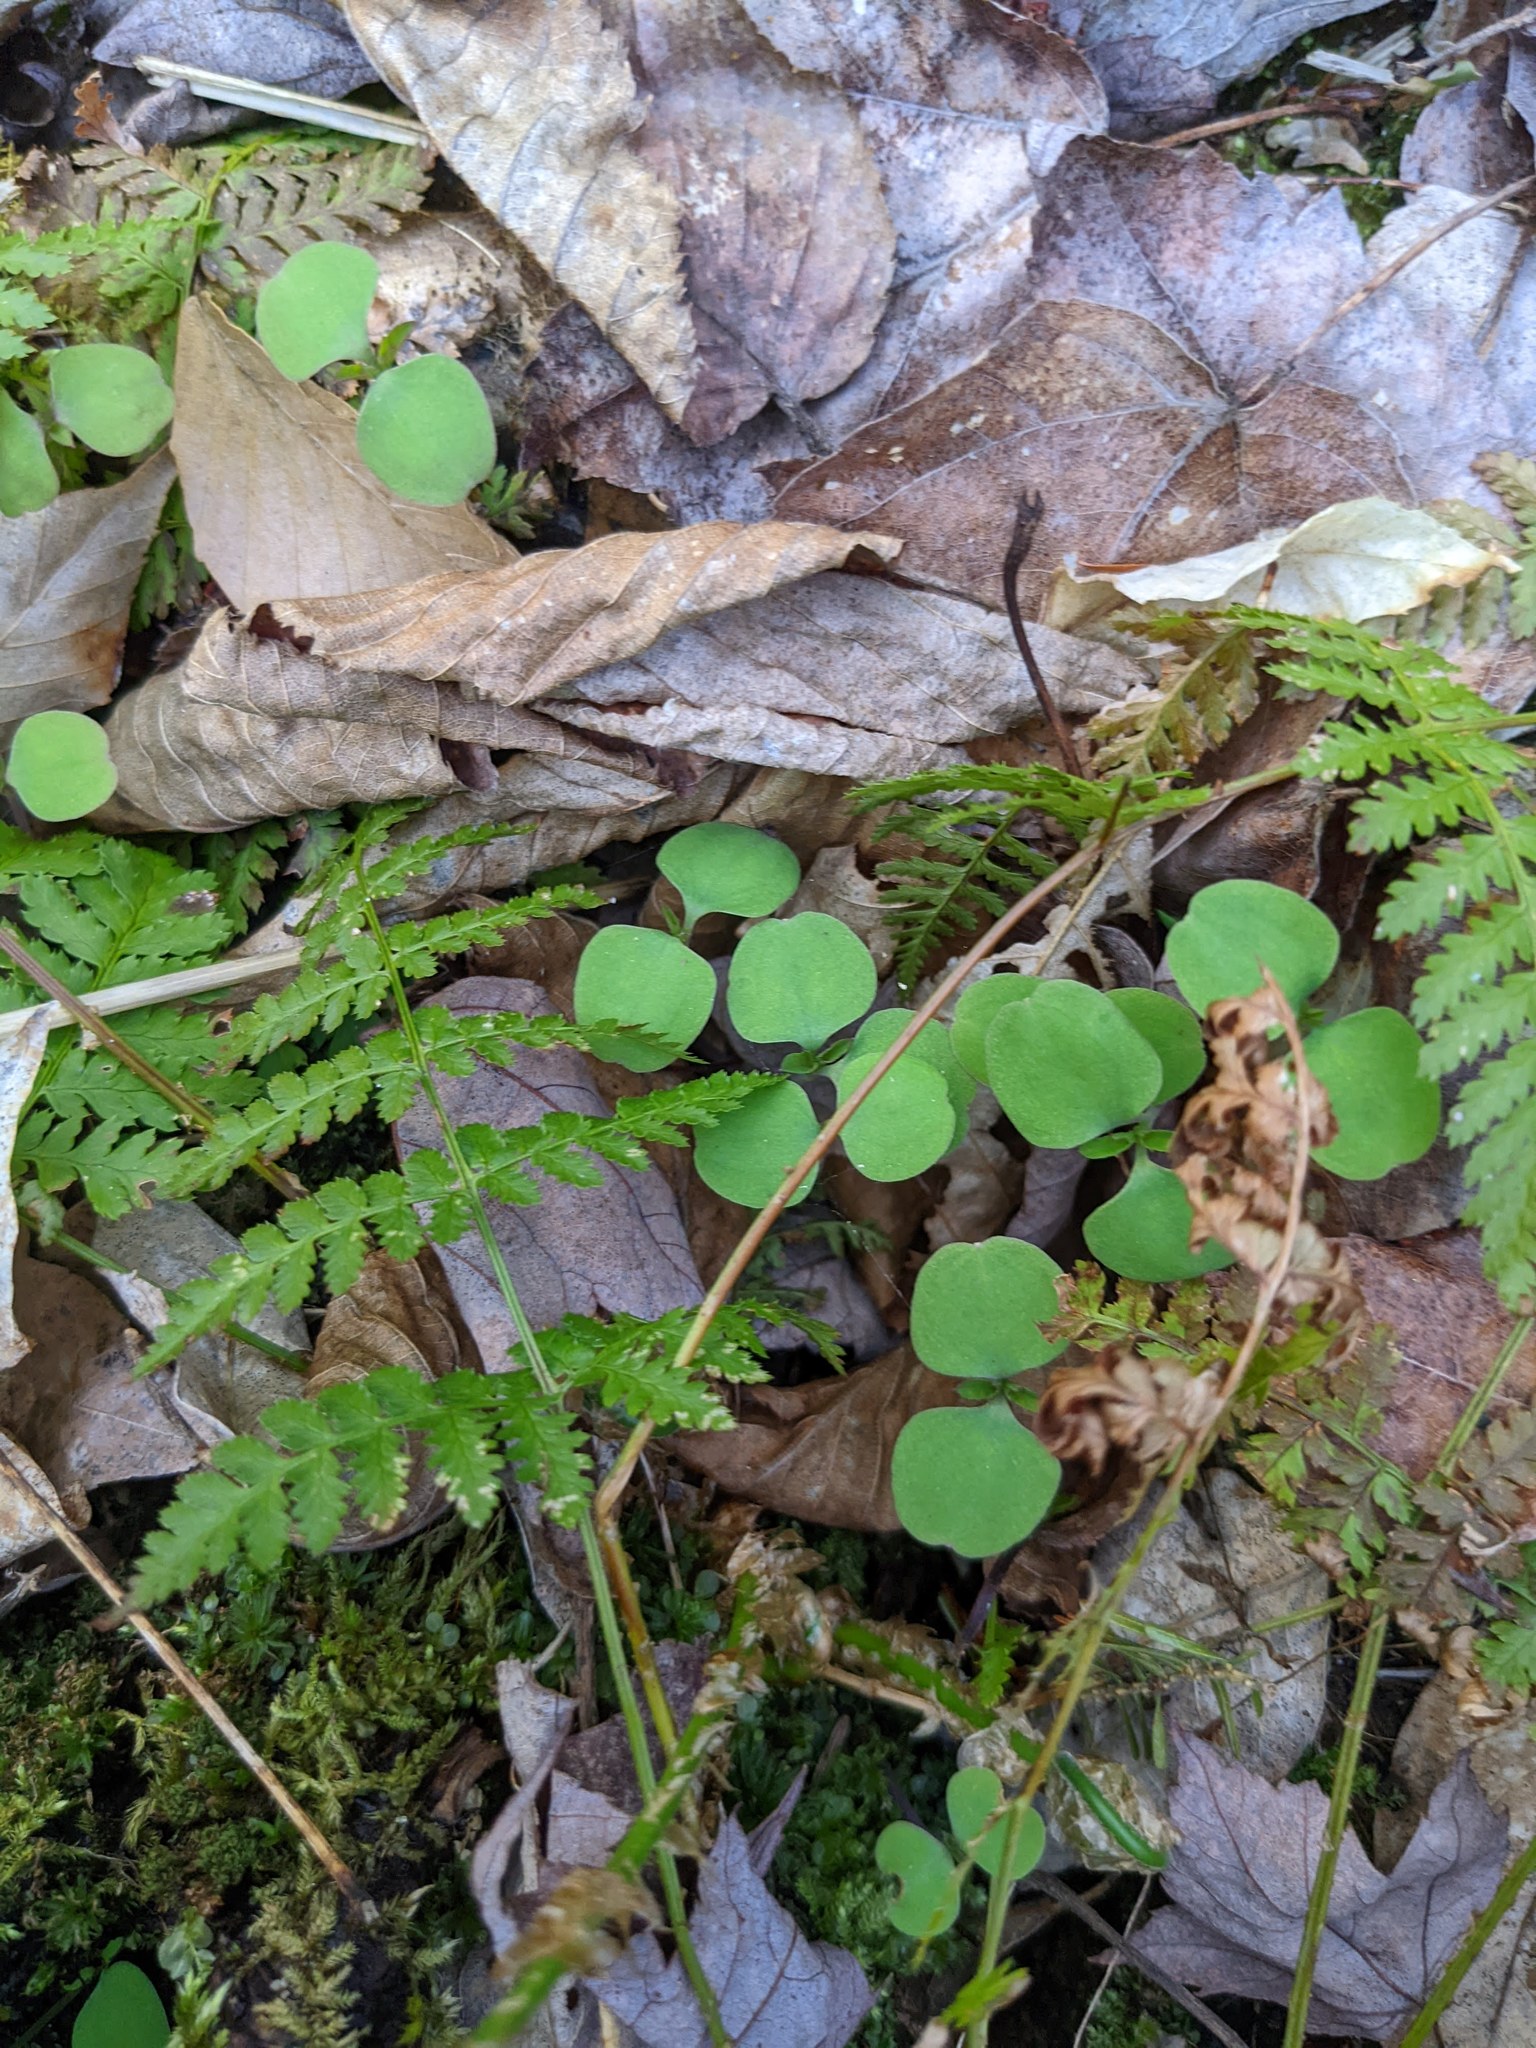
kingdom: Plantae
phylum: Tracheophyta
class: Magnoliopsida
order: Ericales
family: Balsaminaceae
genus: Impatiens
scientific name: Impatiens
